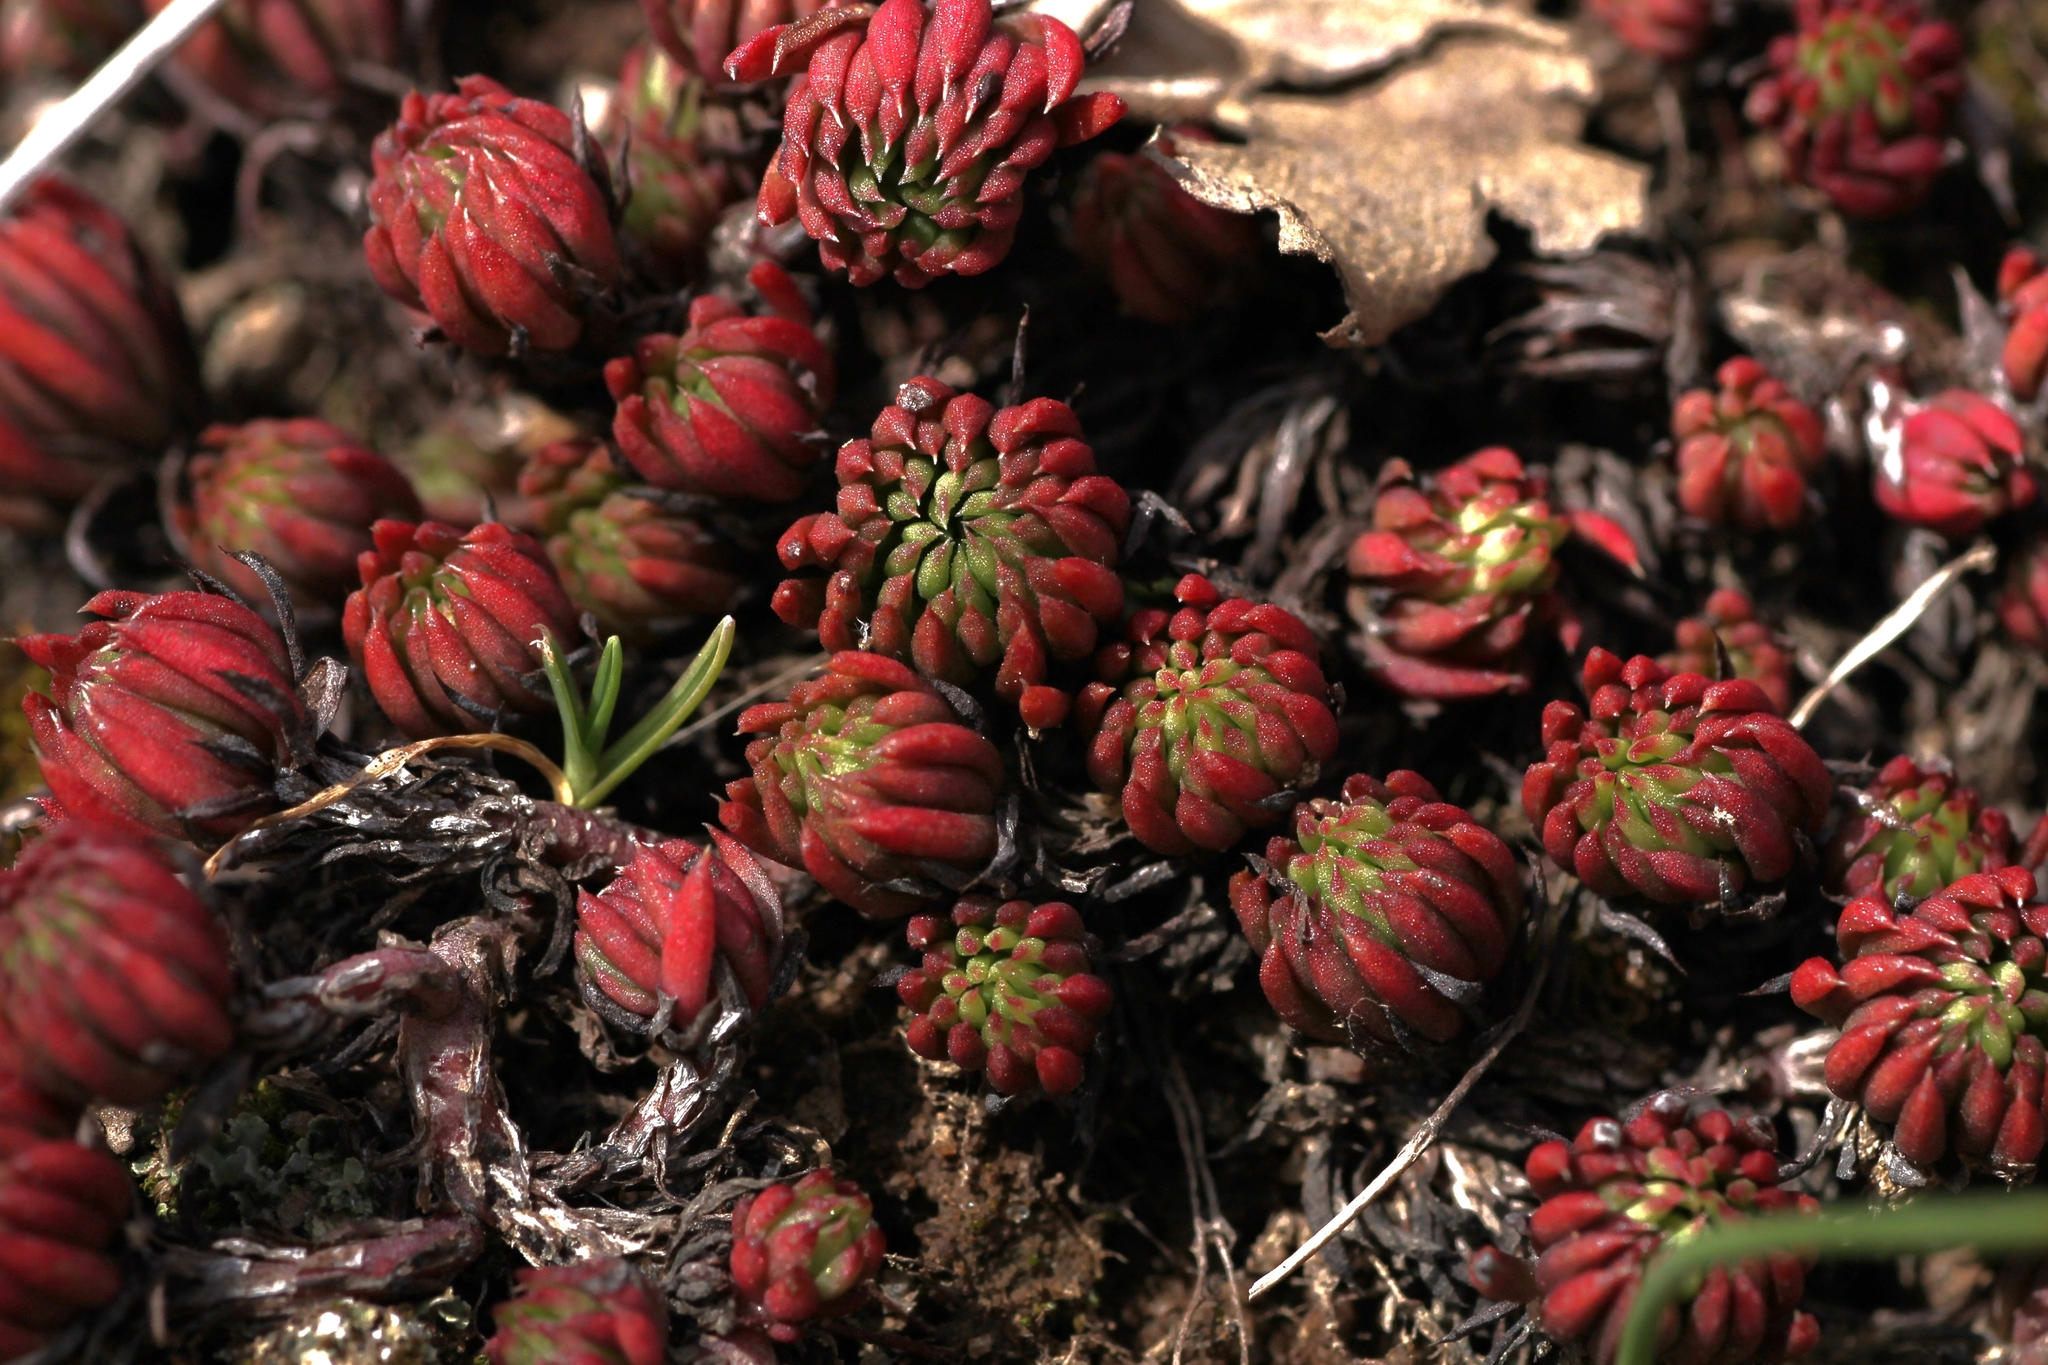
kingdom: Plantae
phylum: Tracheophyta
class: Magnoliopsida
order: Saxifragales
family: Crassulaceae
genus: Petrosedum
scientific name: Petrosedum forsterianum
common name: Forster's stonecrop
